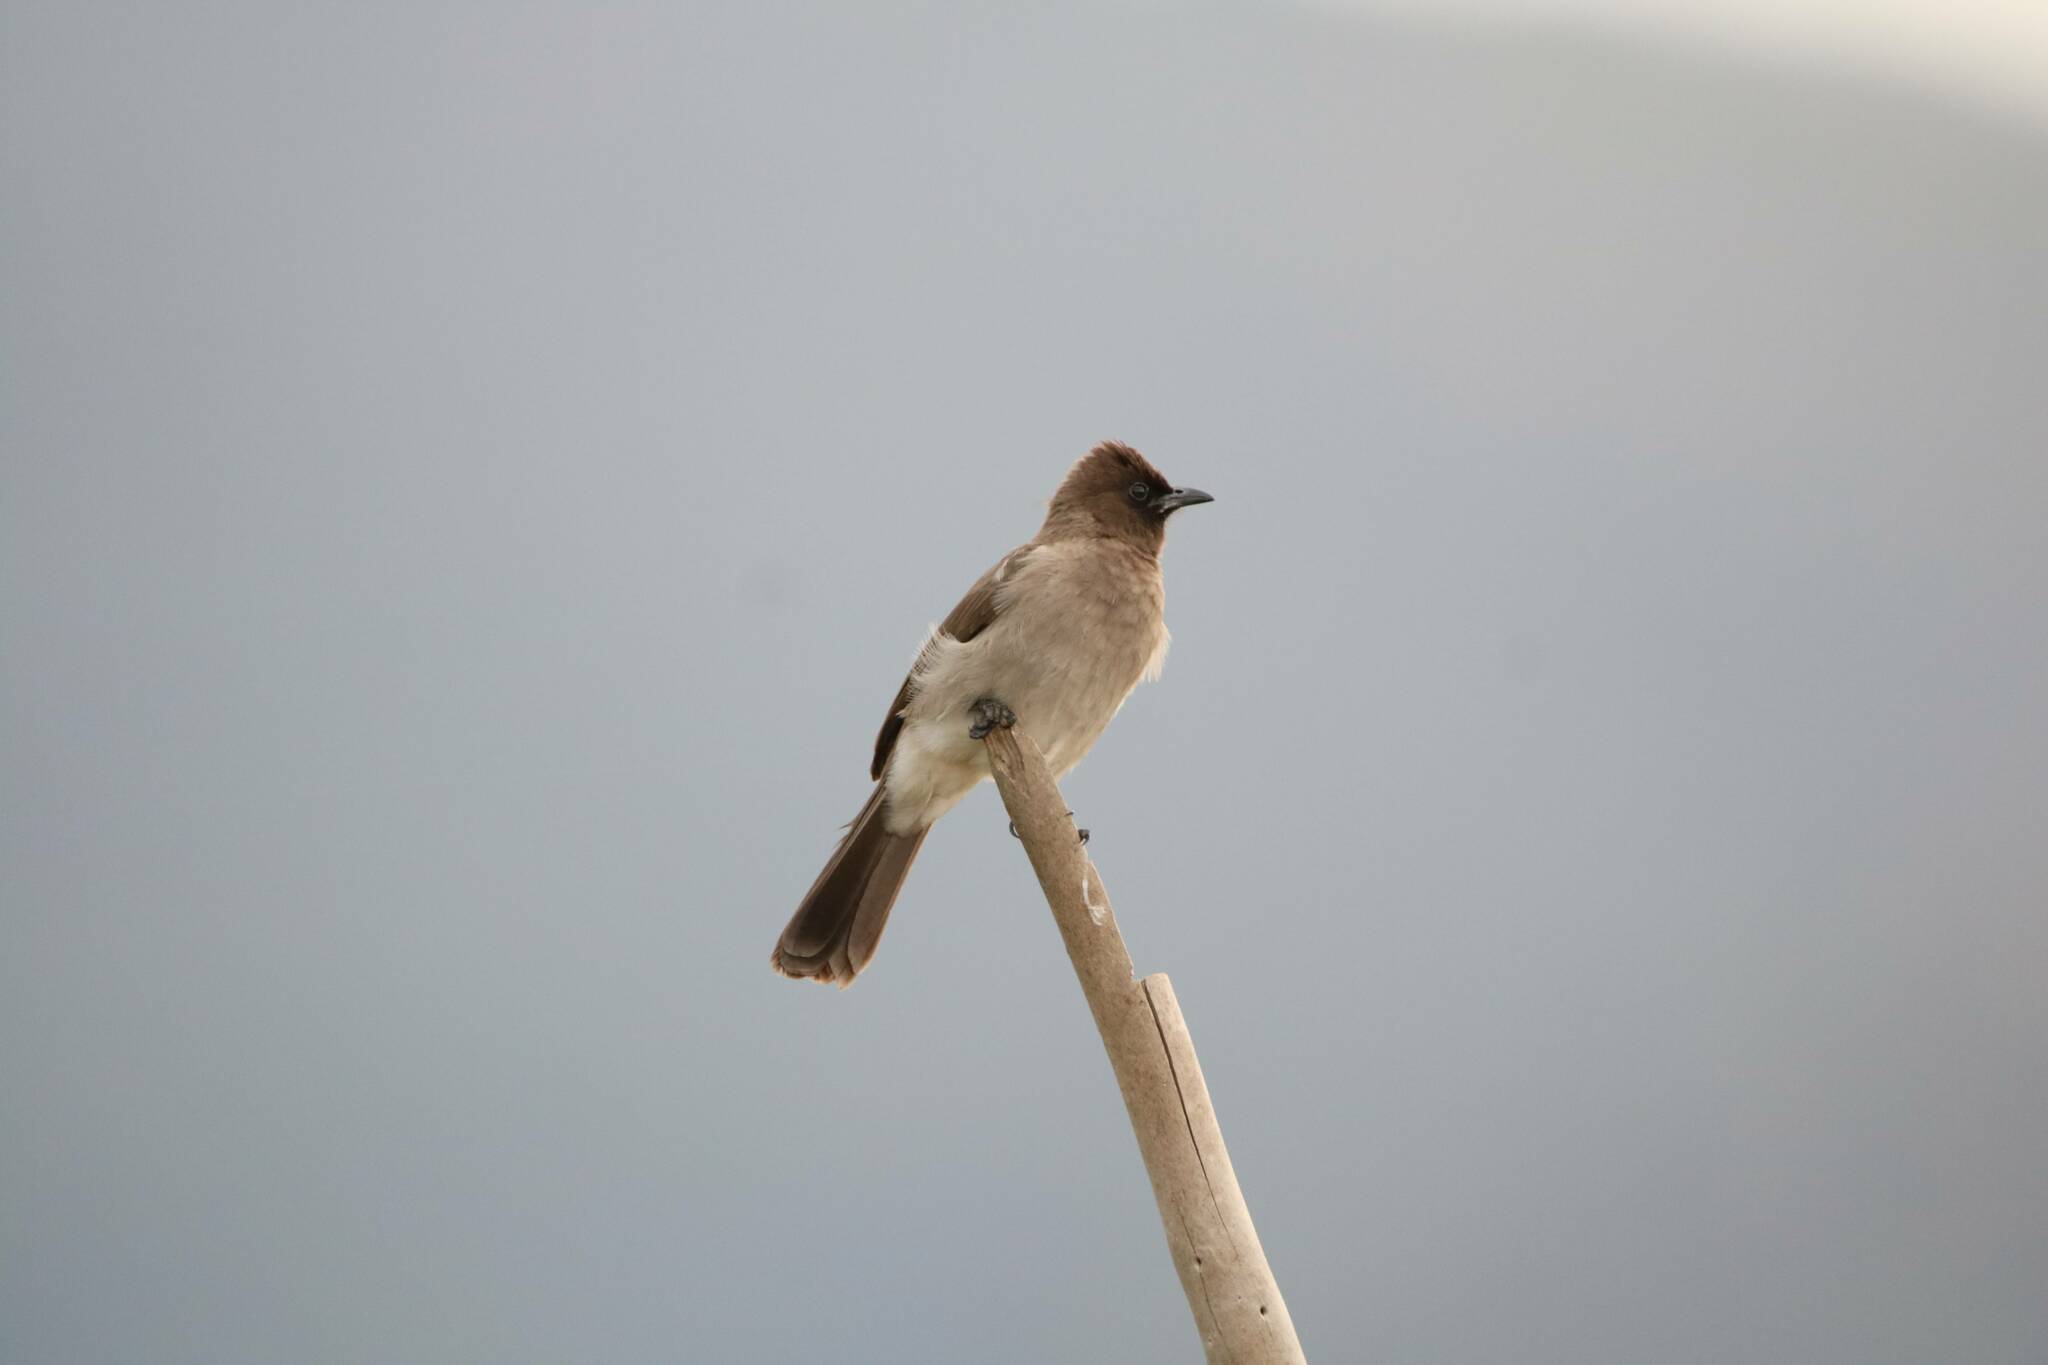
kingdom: Animalia
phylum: Chordata
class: Aves
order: Passeriformes
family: Pycnonotidae
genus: Pycnonotus
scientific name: Pycnonotus barbatus
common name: Common bulbul
